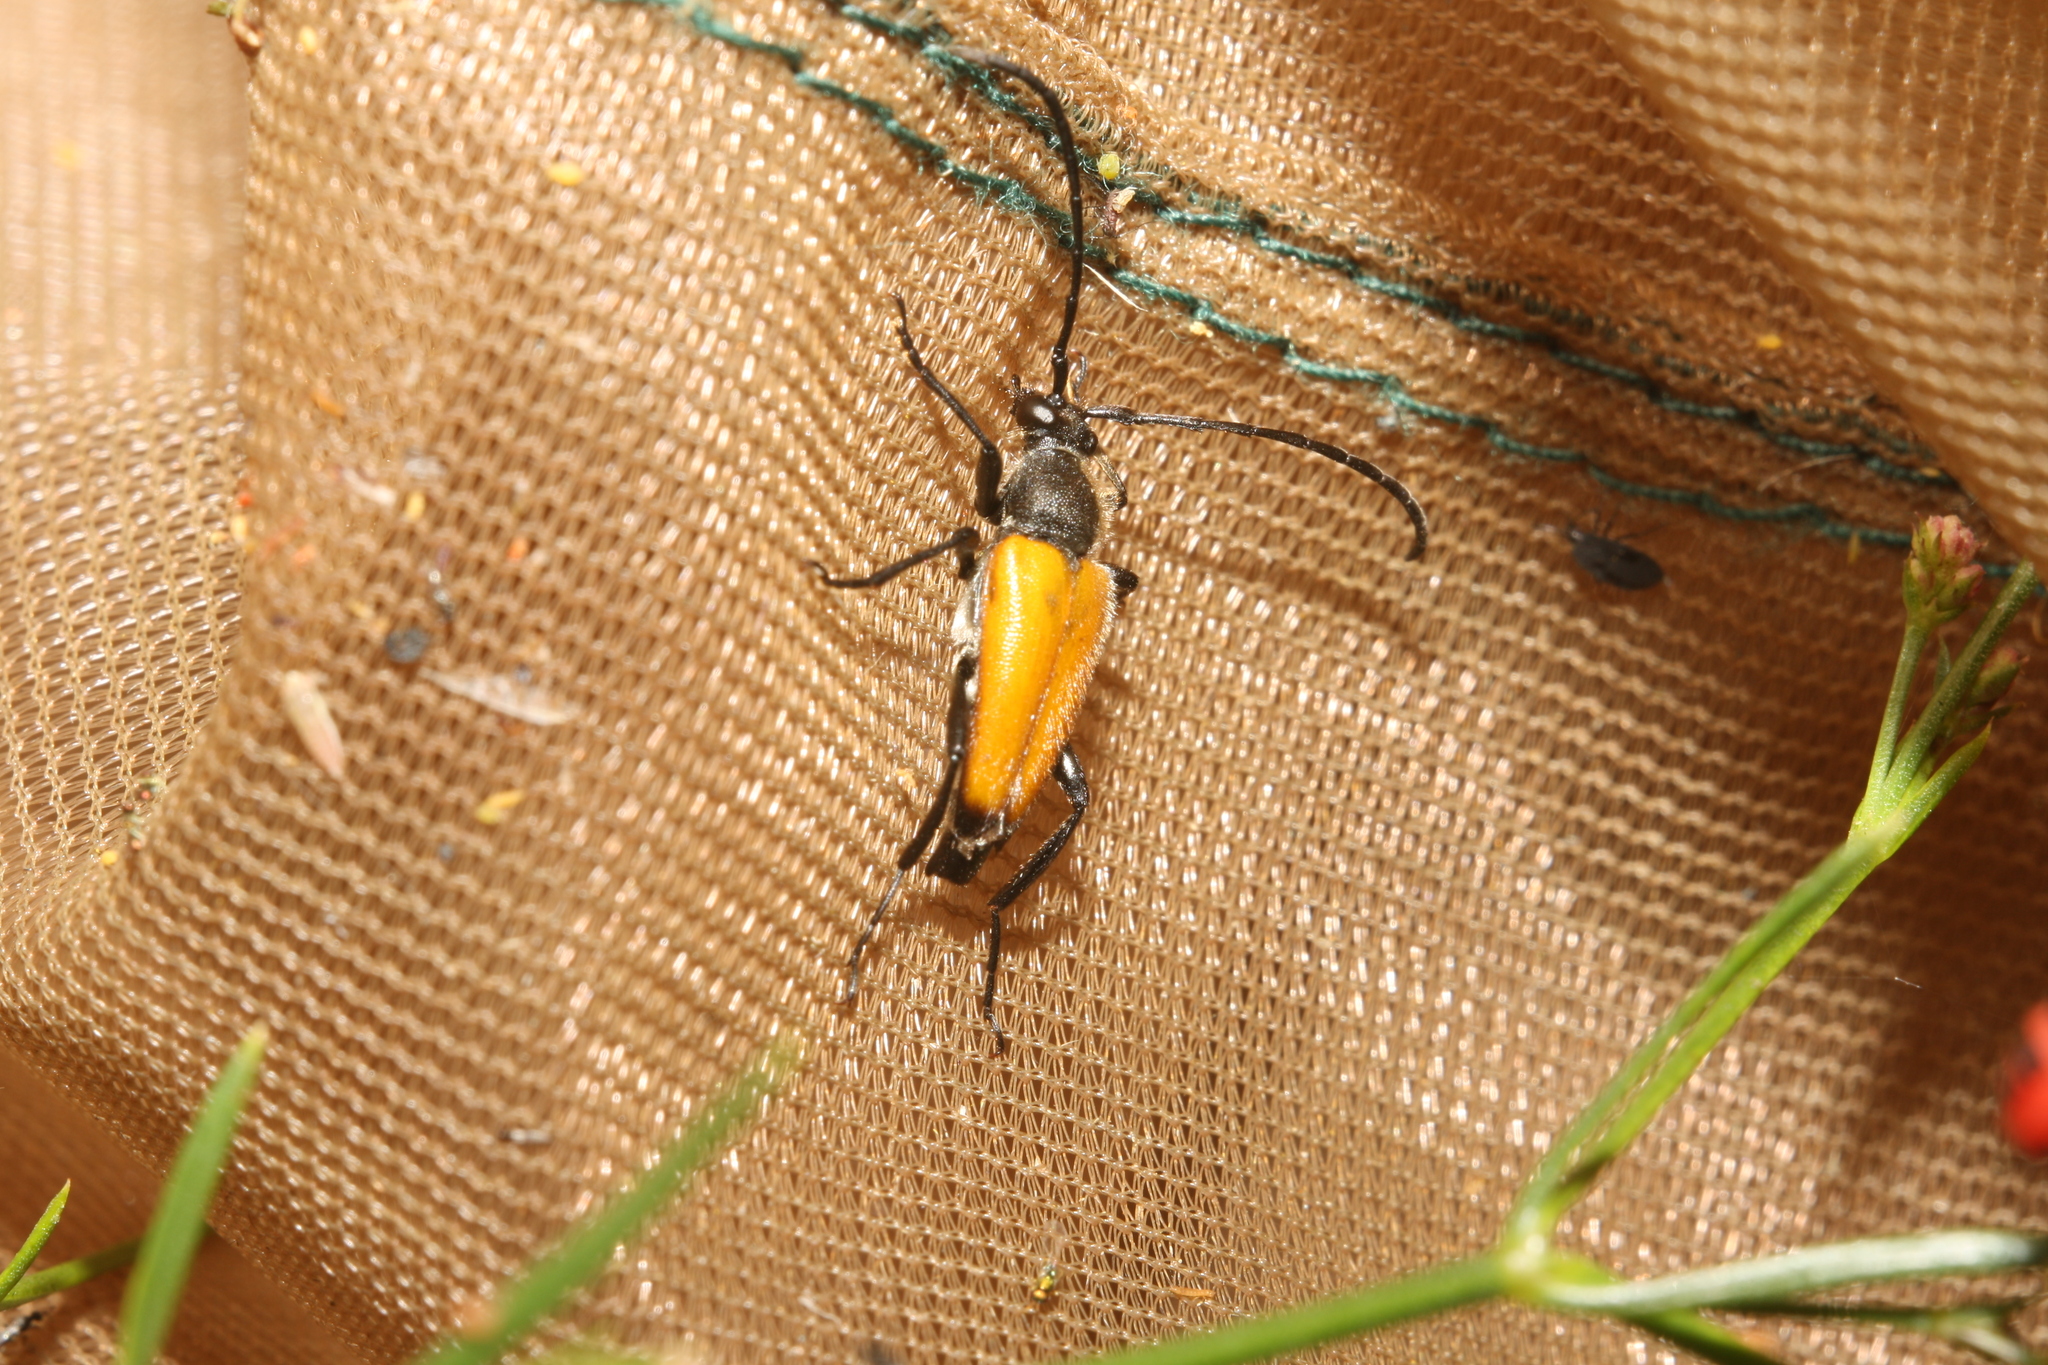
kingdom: Animalia
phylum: Arthropoda
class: Insecta
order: Coleoptera
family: Cerambycidae
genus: Paracorymbia
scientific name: Paracorymbia fulva
